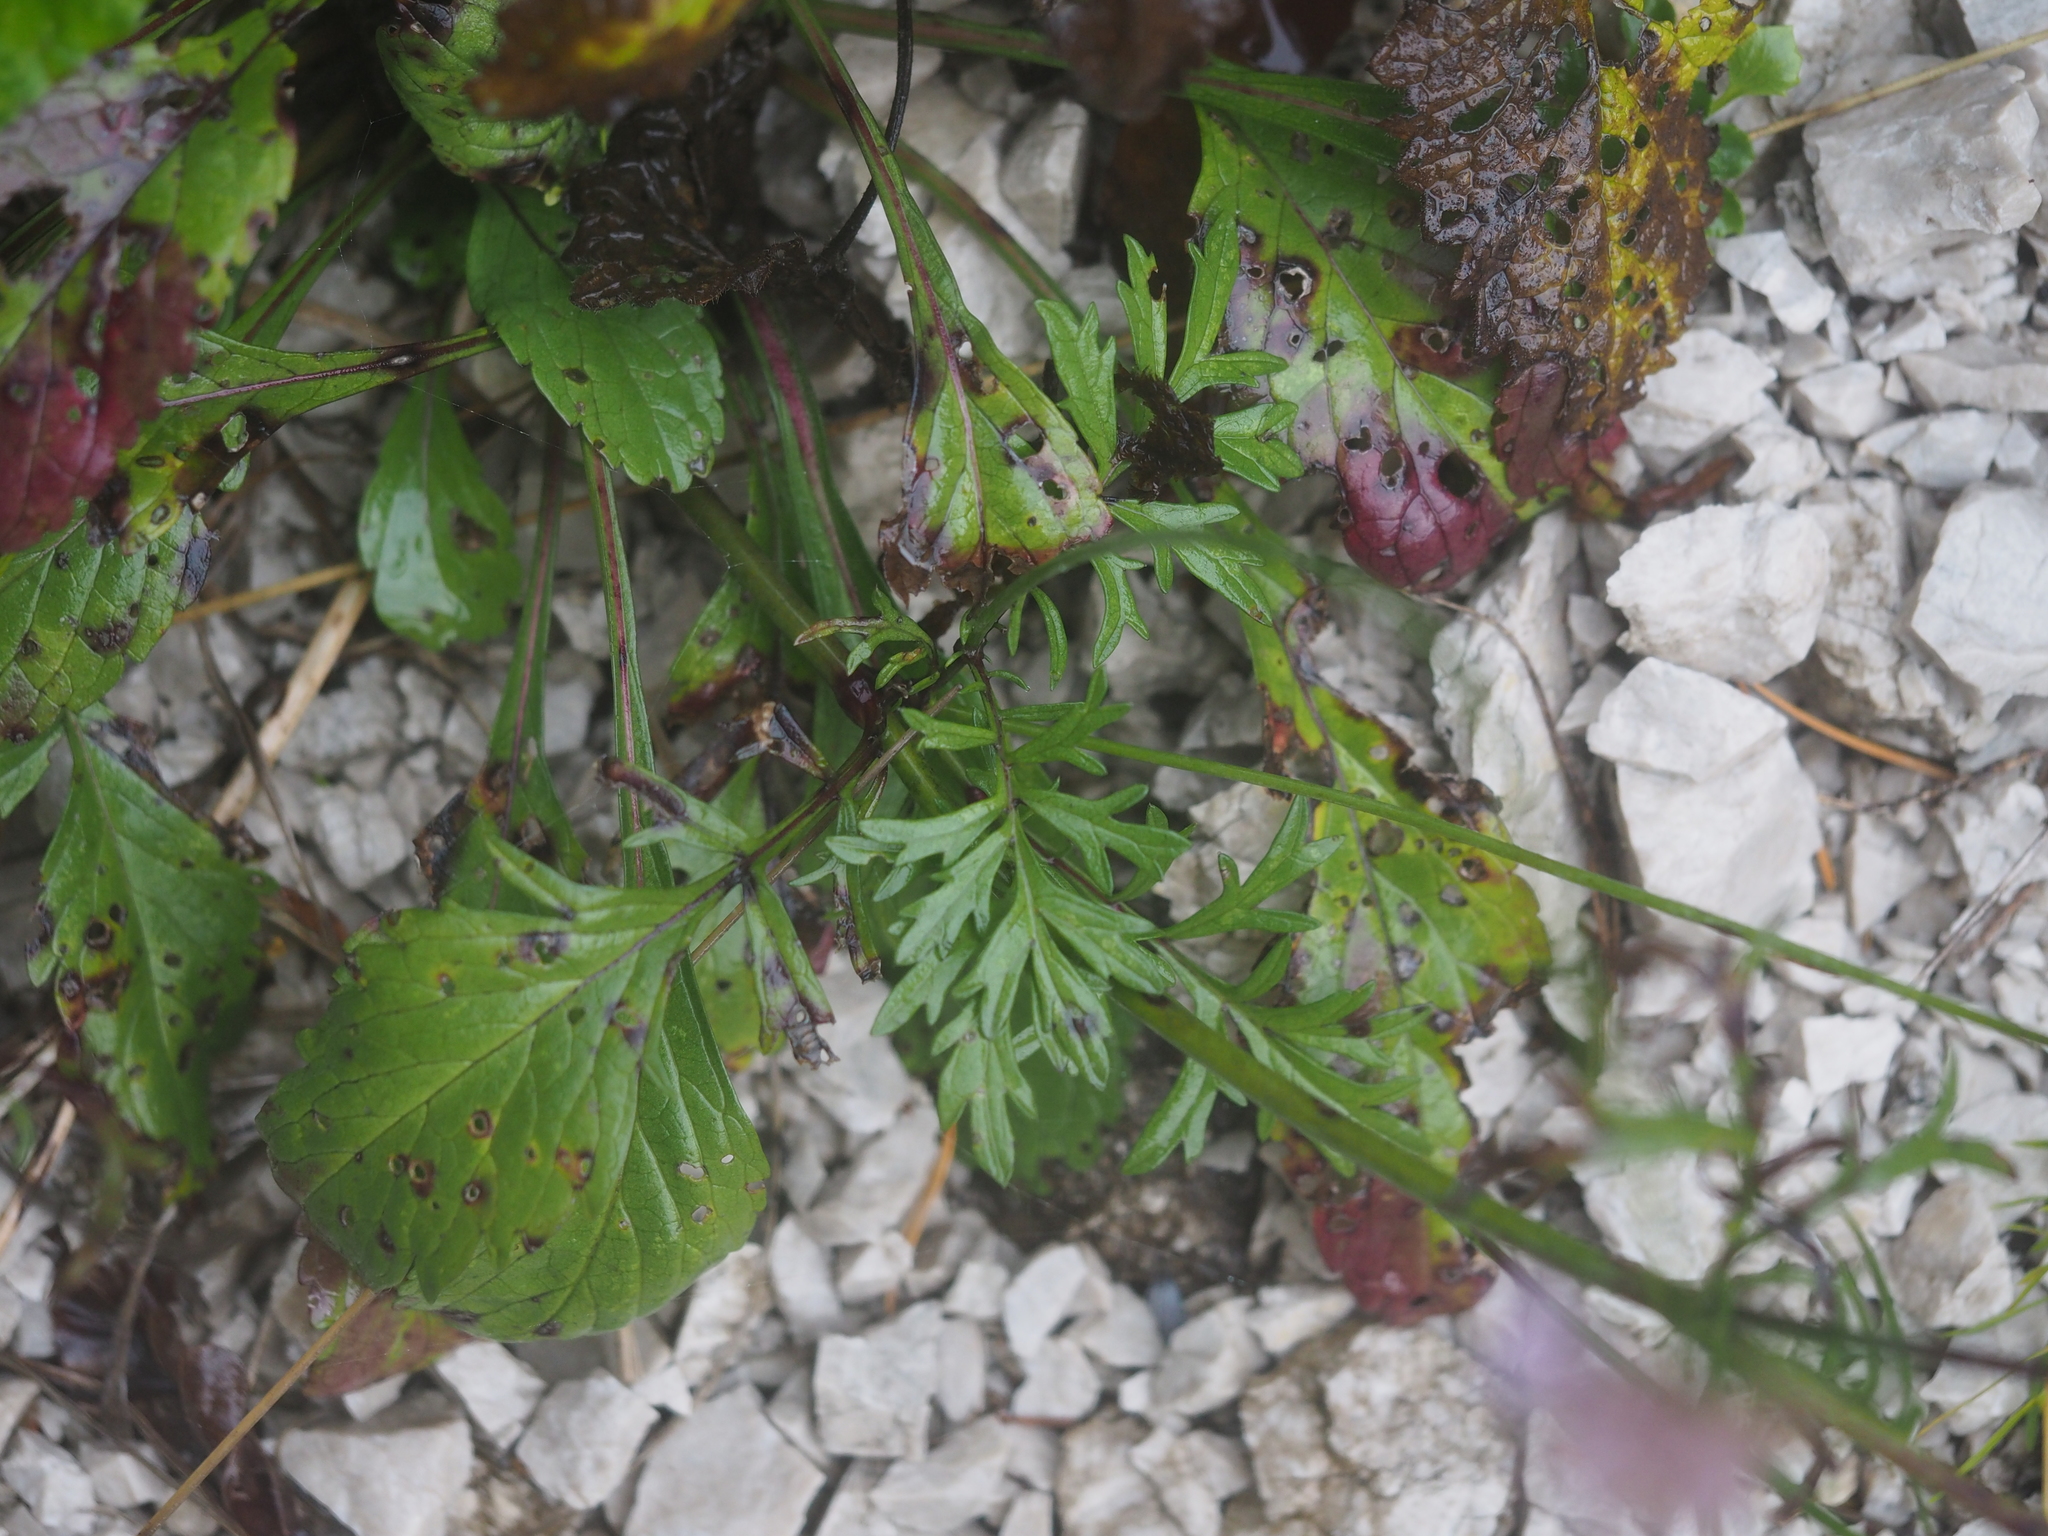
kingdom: Plantae
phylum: Tracheophyta
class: Magnoliopsida
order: Dipsacales
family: Caprifoliaceae
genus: Scabiosa
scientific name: Scabiosa lucida
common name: Shining scabious
